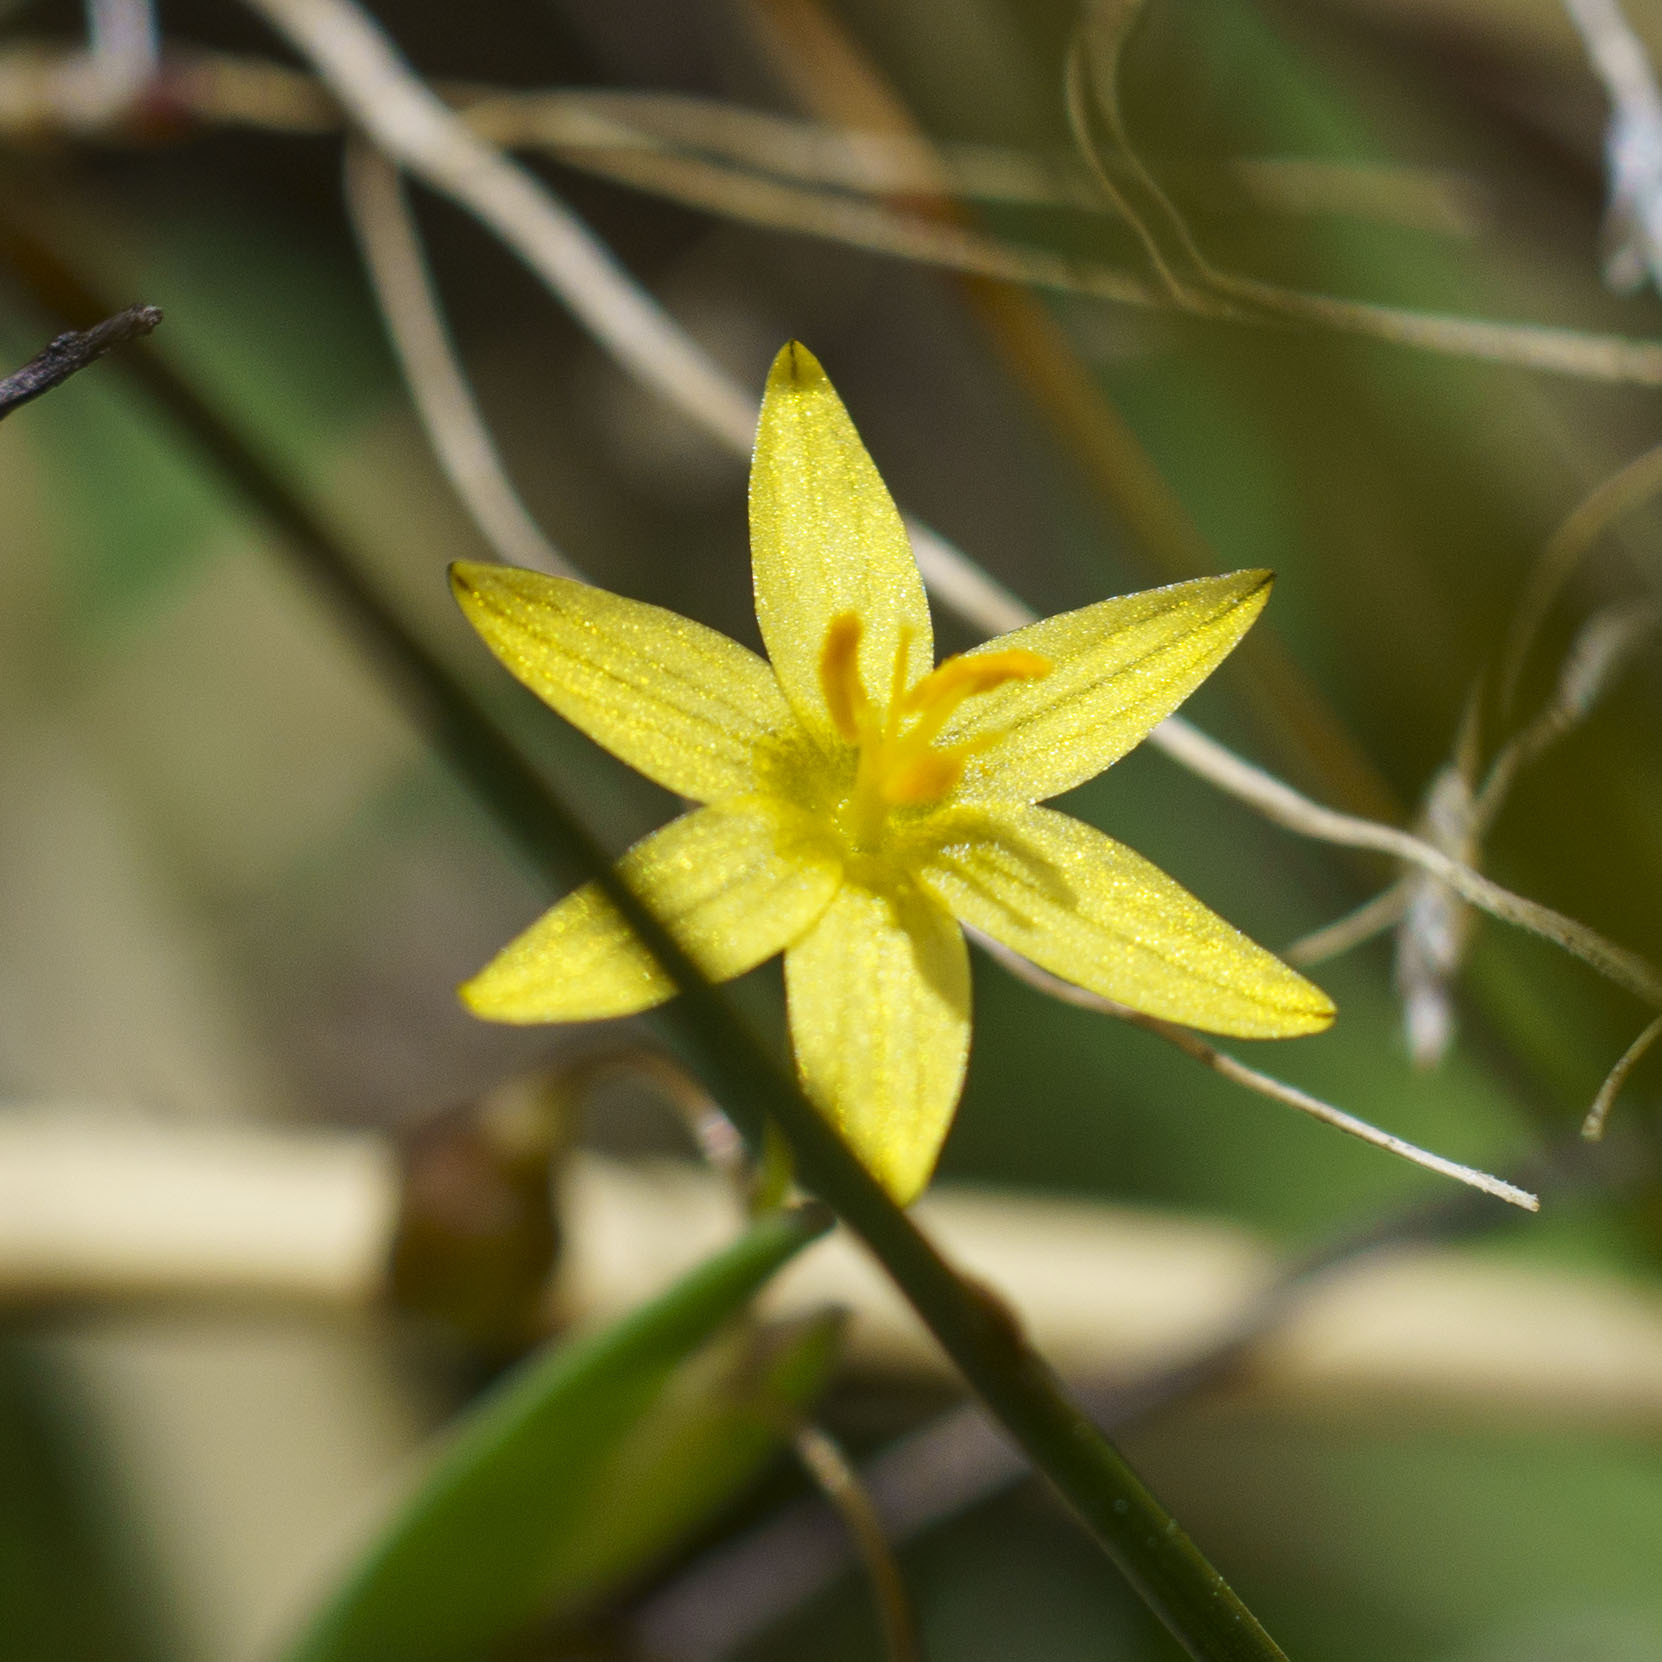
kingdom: Plantae
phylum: Tracheophyta
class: Liliopsida
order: Asparagales
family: Iridaceae
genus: Sisyrinchium
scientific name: Sisyrinchium translucens
